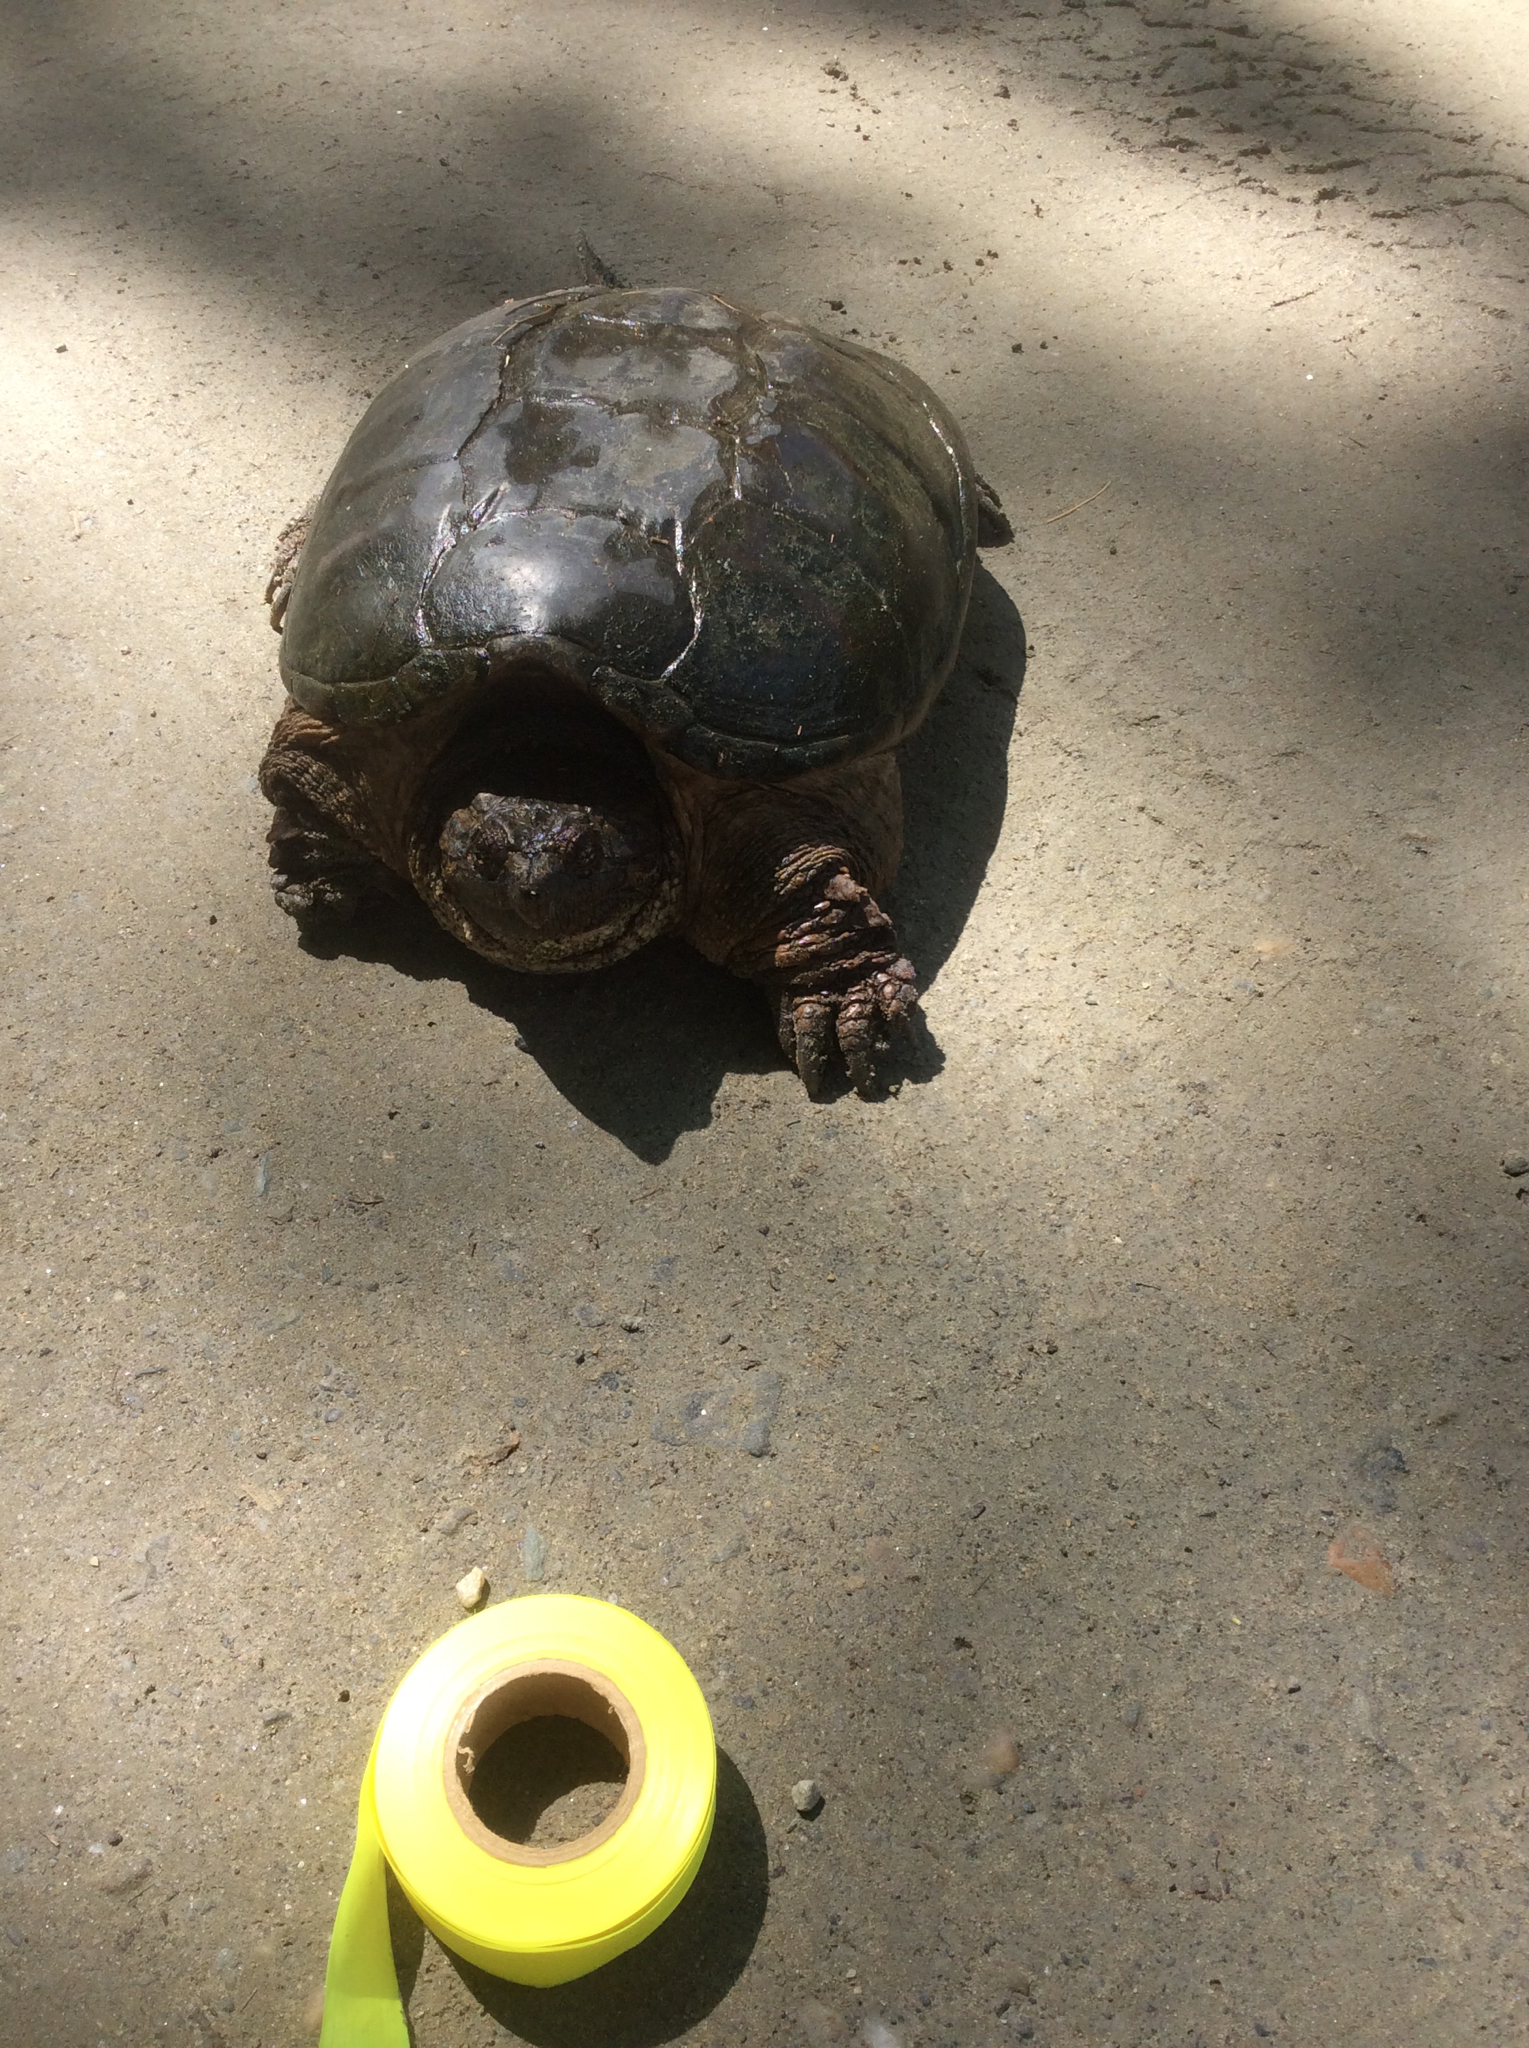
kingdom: Animalia
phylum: Chordata
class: Testudines
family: Chelydridae
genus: Chelydra
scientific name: Chelydra serpentina
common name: Common snapping turtle
